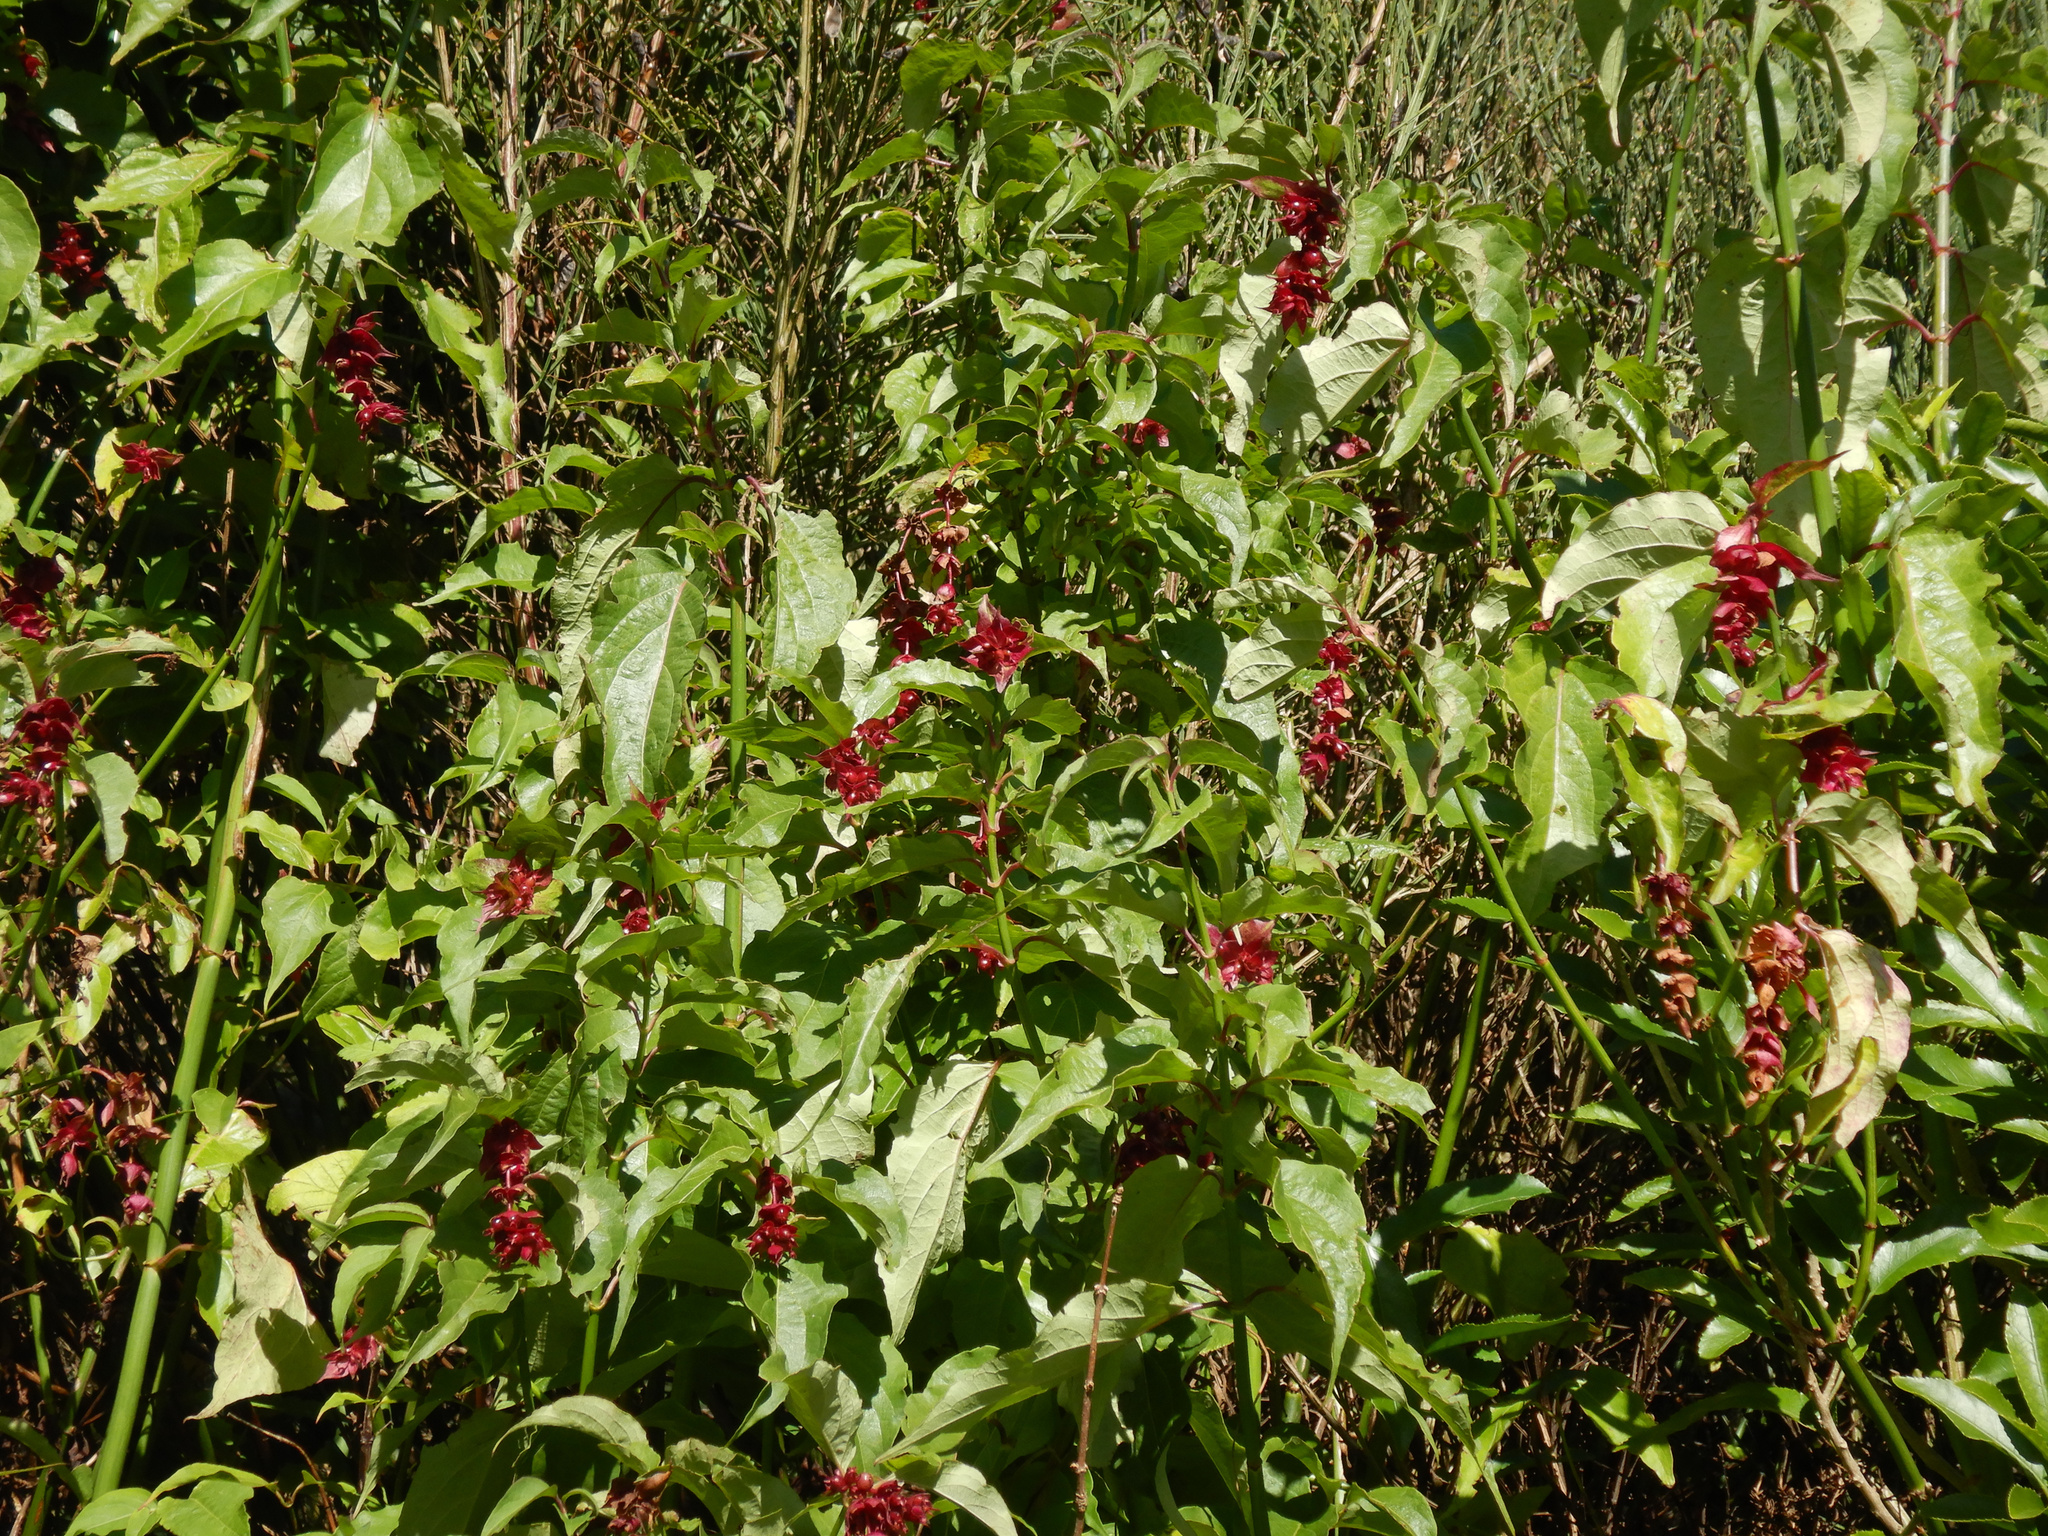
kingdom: Plantae
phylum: Tracheophyta
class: Magnoliopsida
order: Dipsacales
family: Caprifoliaceae
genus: Leycesteria
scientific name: Leycesteria formosa
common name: Himalayan honeysuckle
